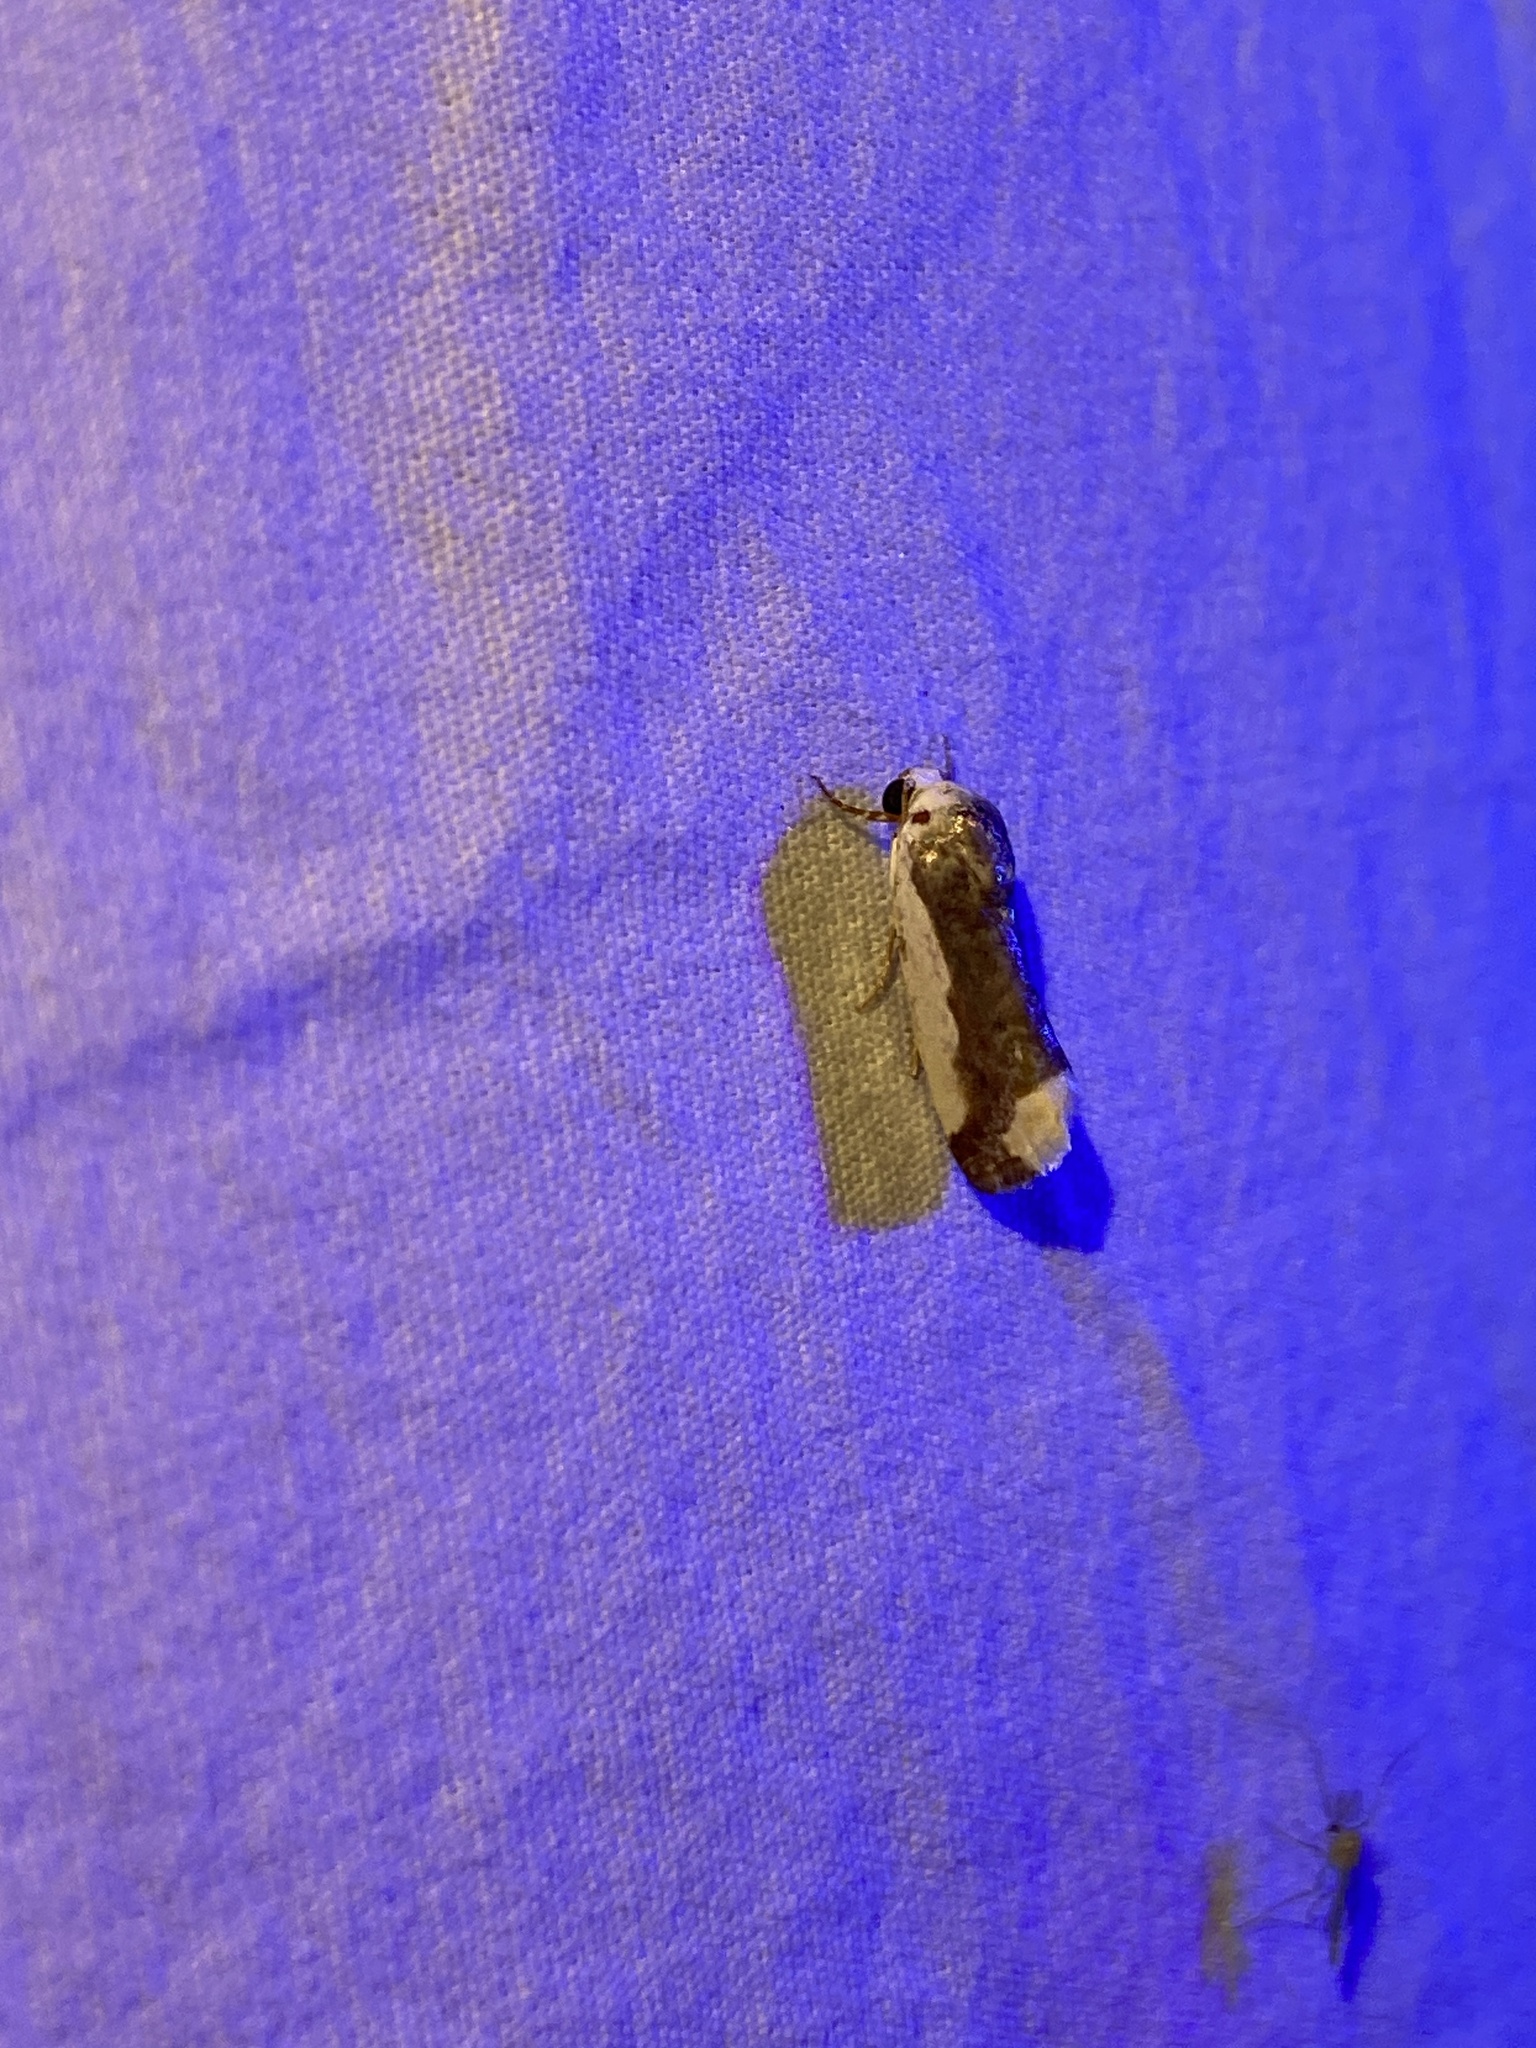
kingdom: Animalia
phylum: Arthropoda
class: Insecta
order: Lepidoptera
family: Noctuidae
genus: Acontia
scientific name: Acontia Tarache expolita
